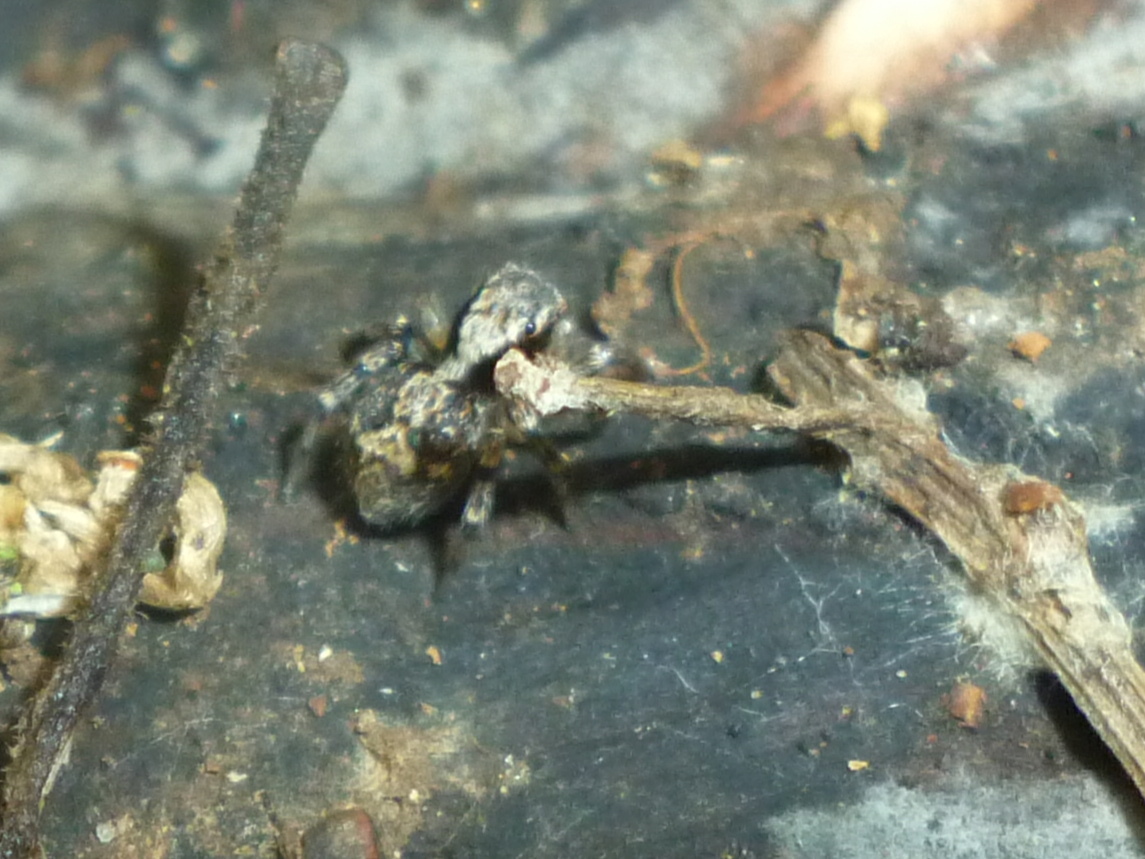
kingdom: Animalia
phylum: Arthropoda
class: Arachnida
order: Araneae
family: Salticidae
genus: Naphrys
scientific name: Naphrys pulex
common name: Flea jumping spider
